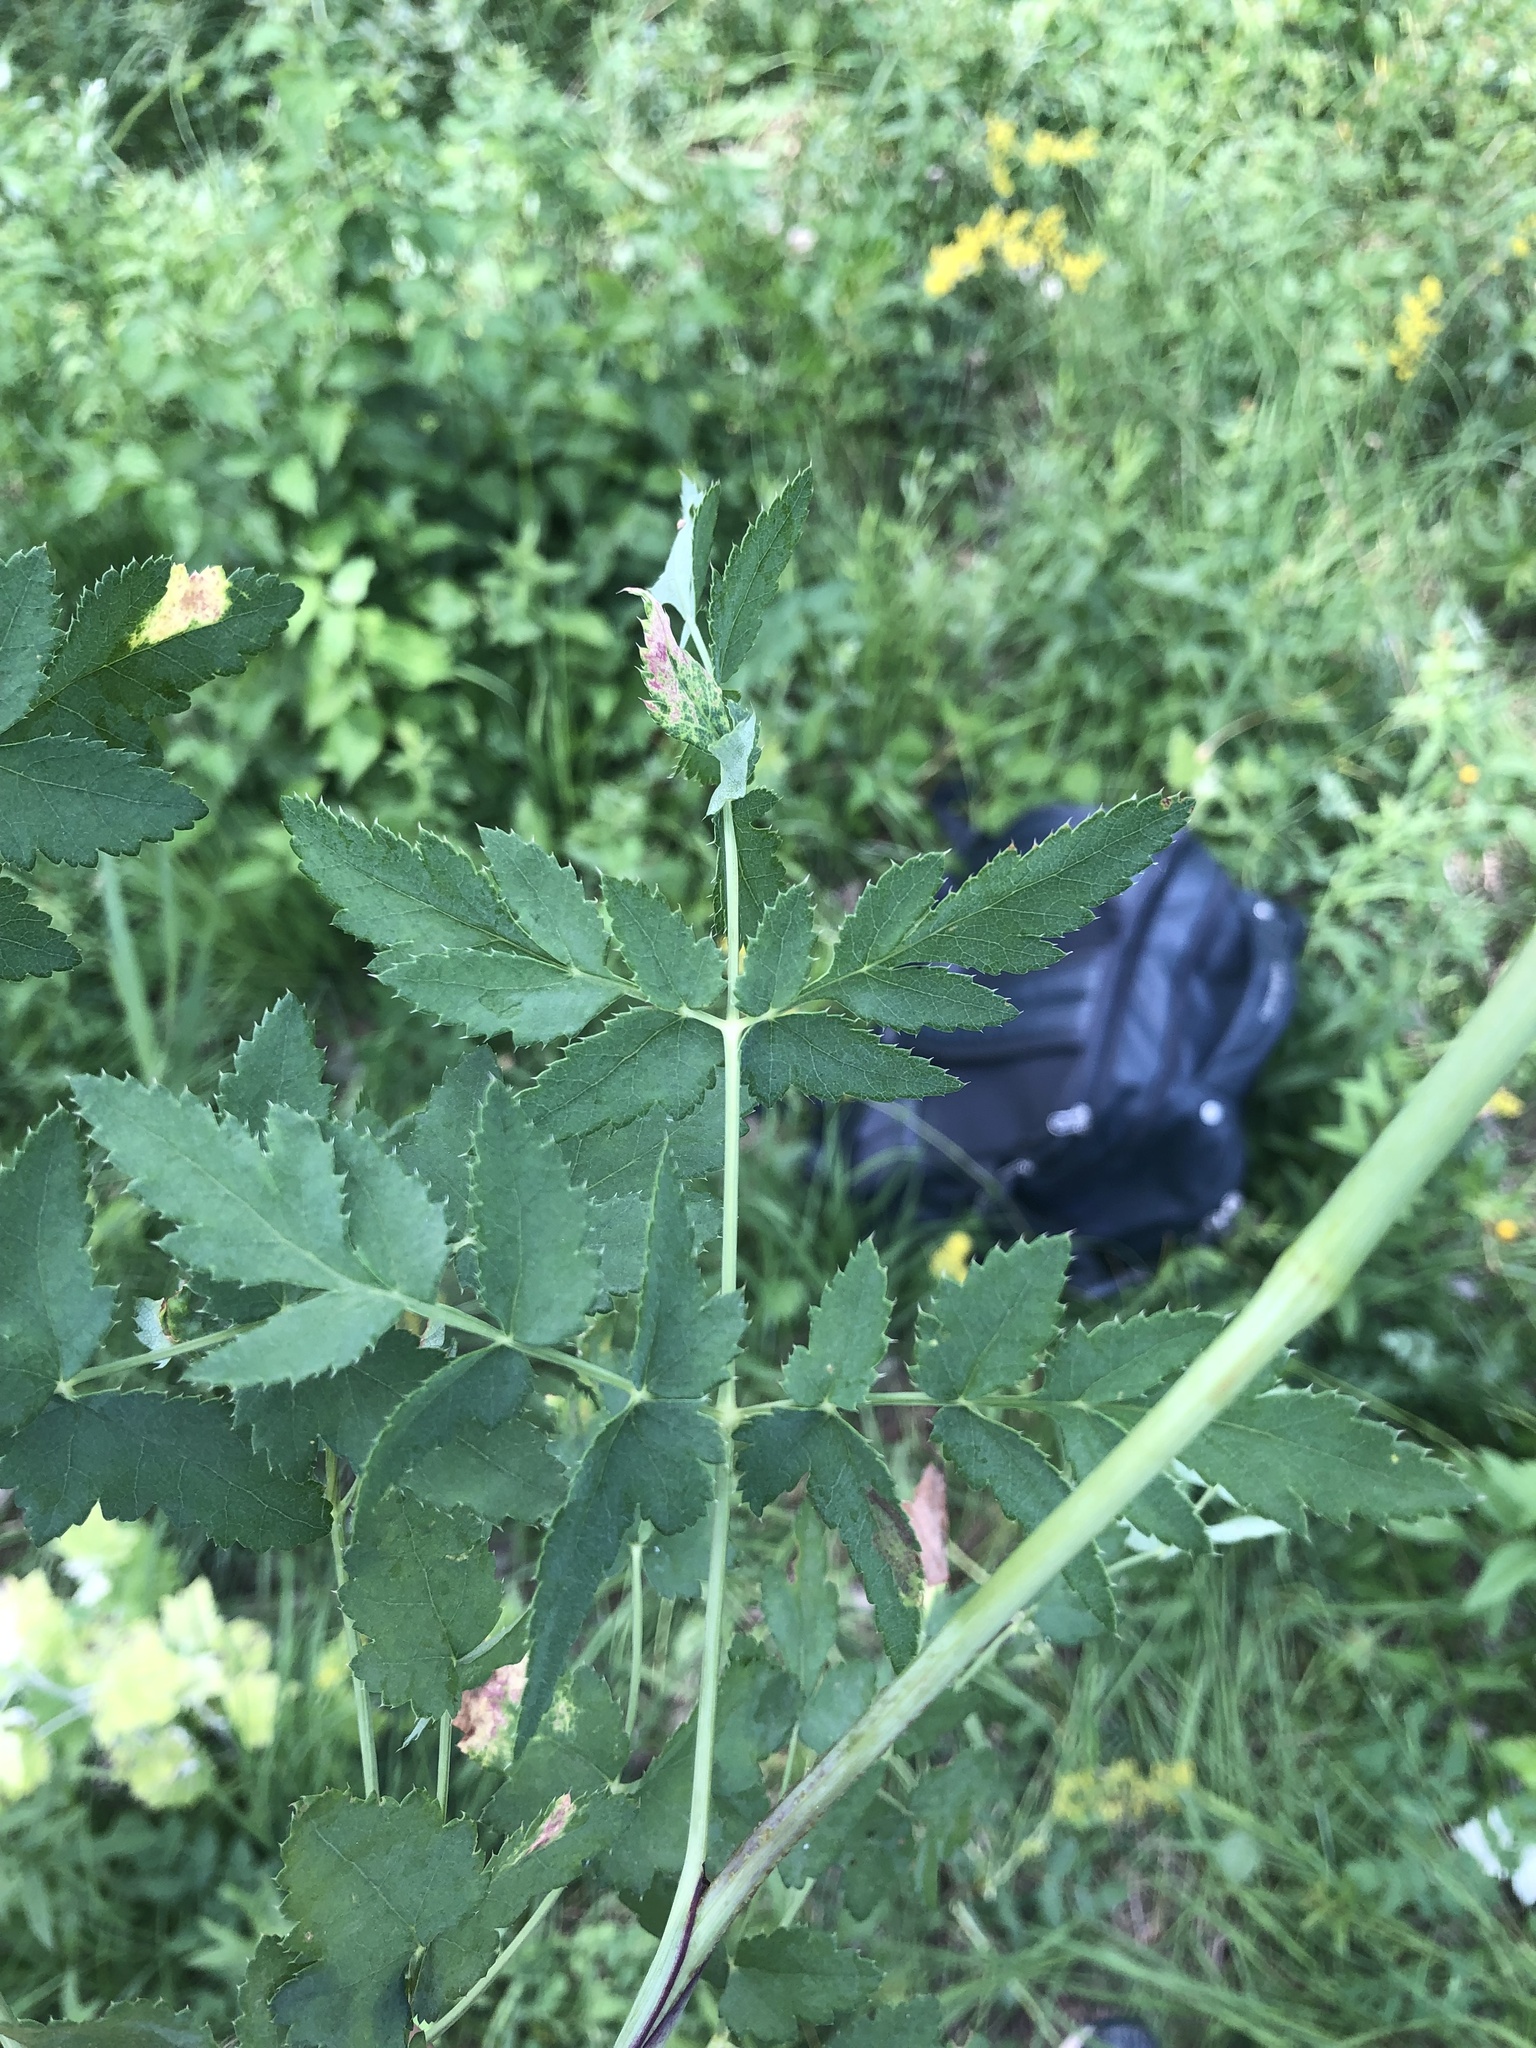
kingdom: Plantae
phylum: Tracheophyta
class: Magnoliopsida
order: Apiales
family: Apiaceae
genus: Cervaria
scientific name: Cervaria rivini
